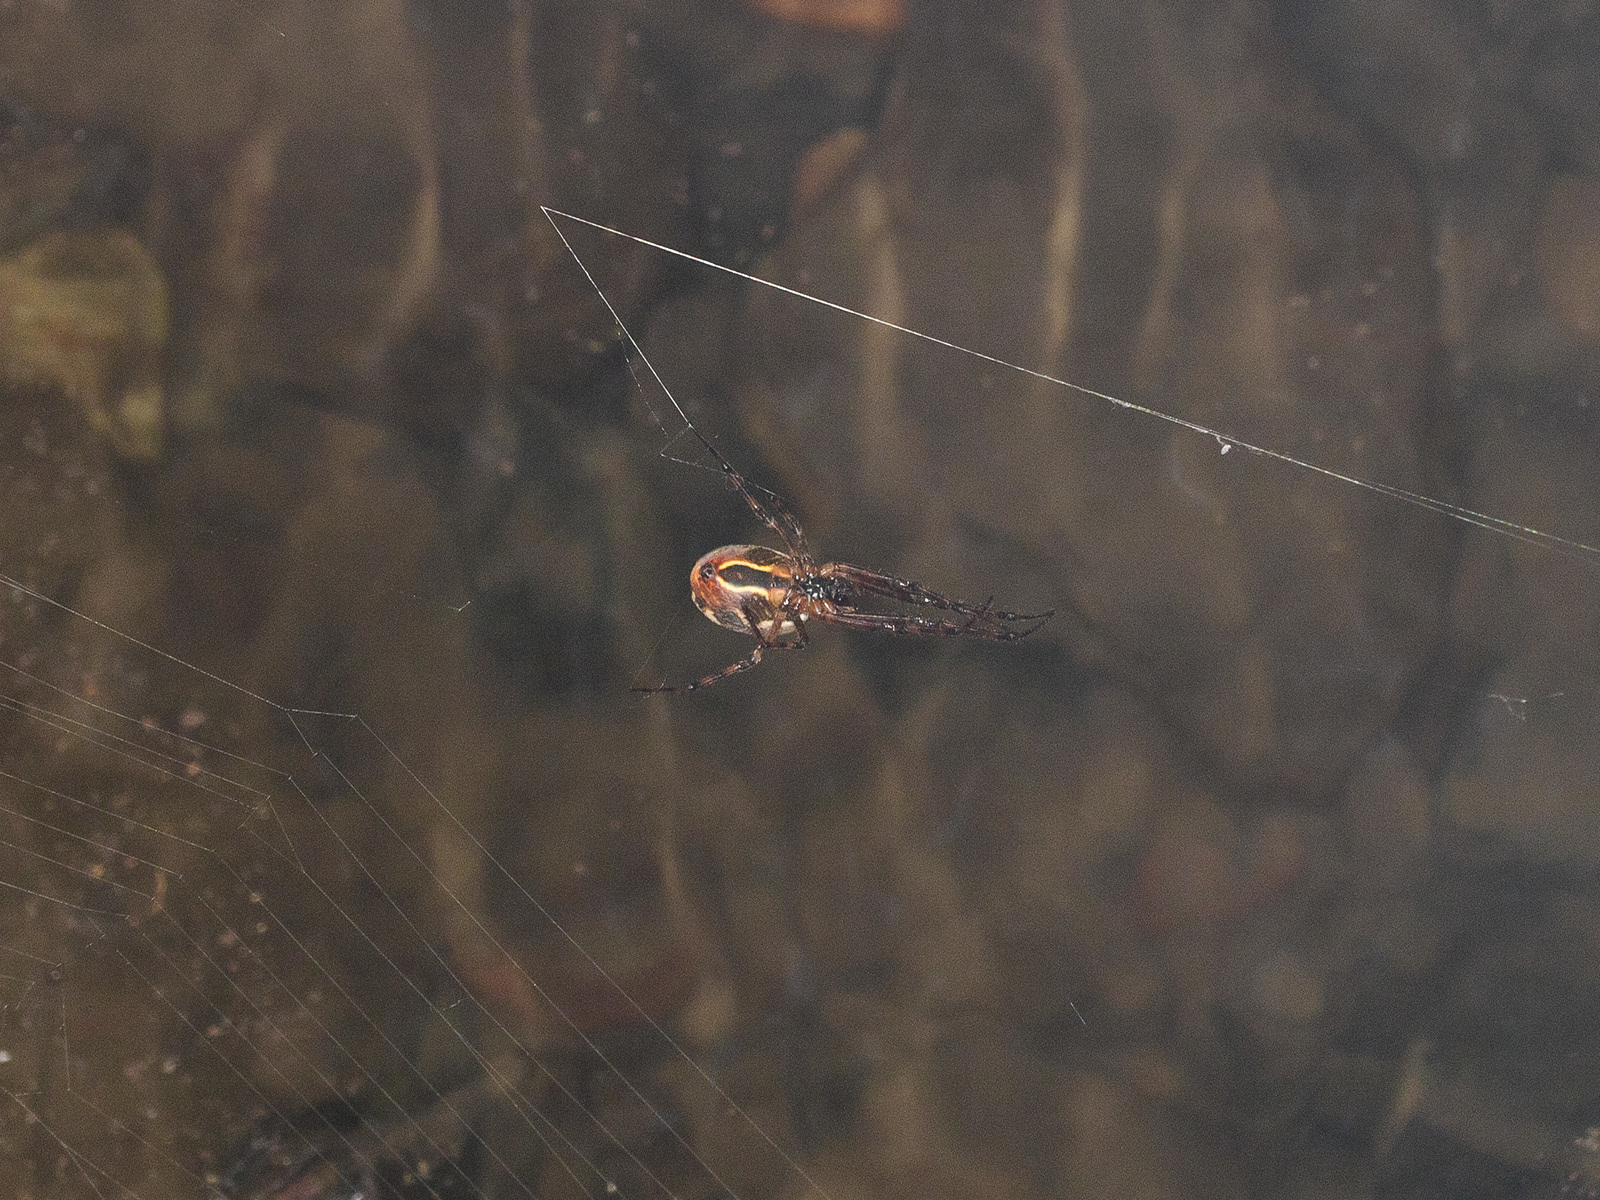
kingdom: Animalia
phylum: Arthropoda
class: Arachnida
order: Araneae
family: Tetragnathidae
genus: Metleucauge
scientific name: Metleucauge dentipalpis
